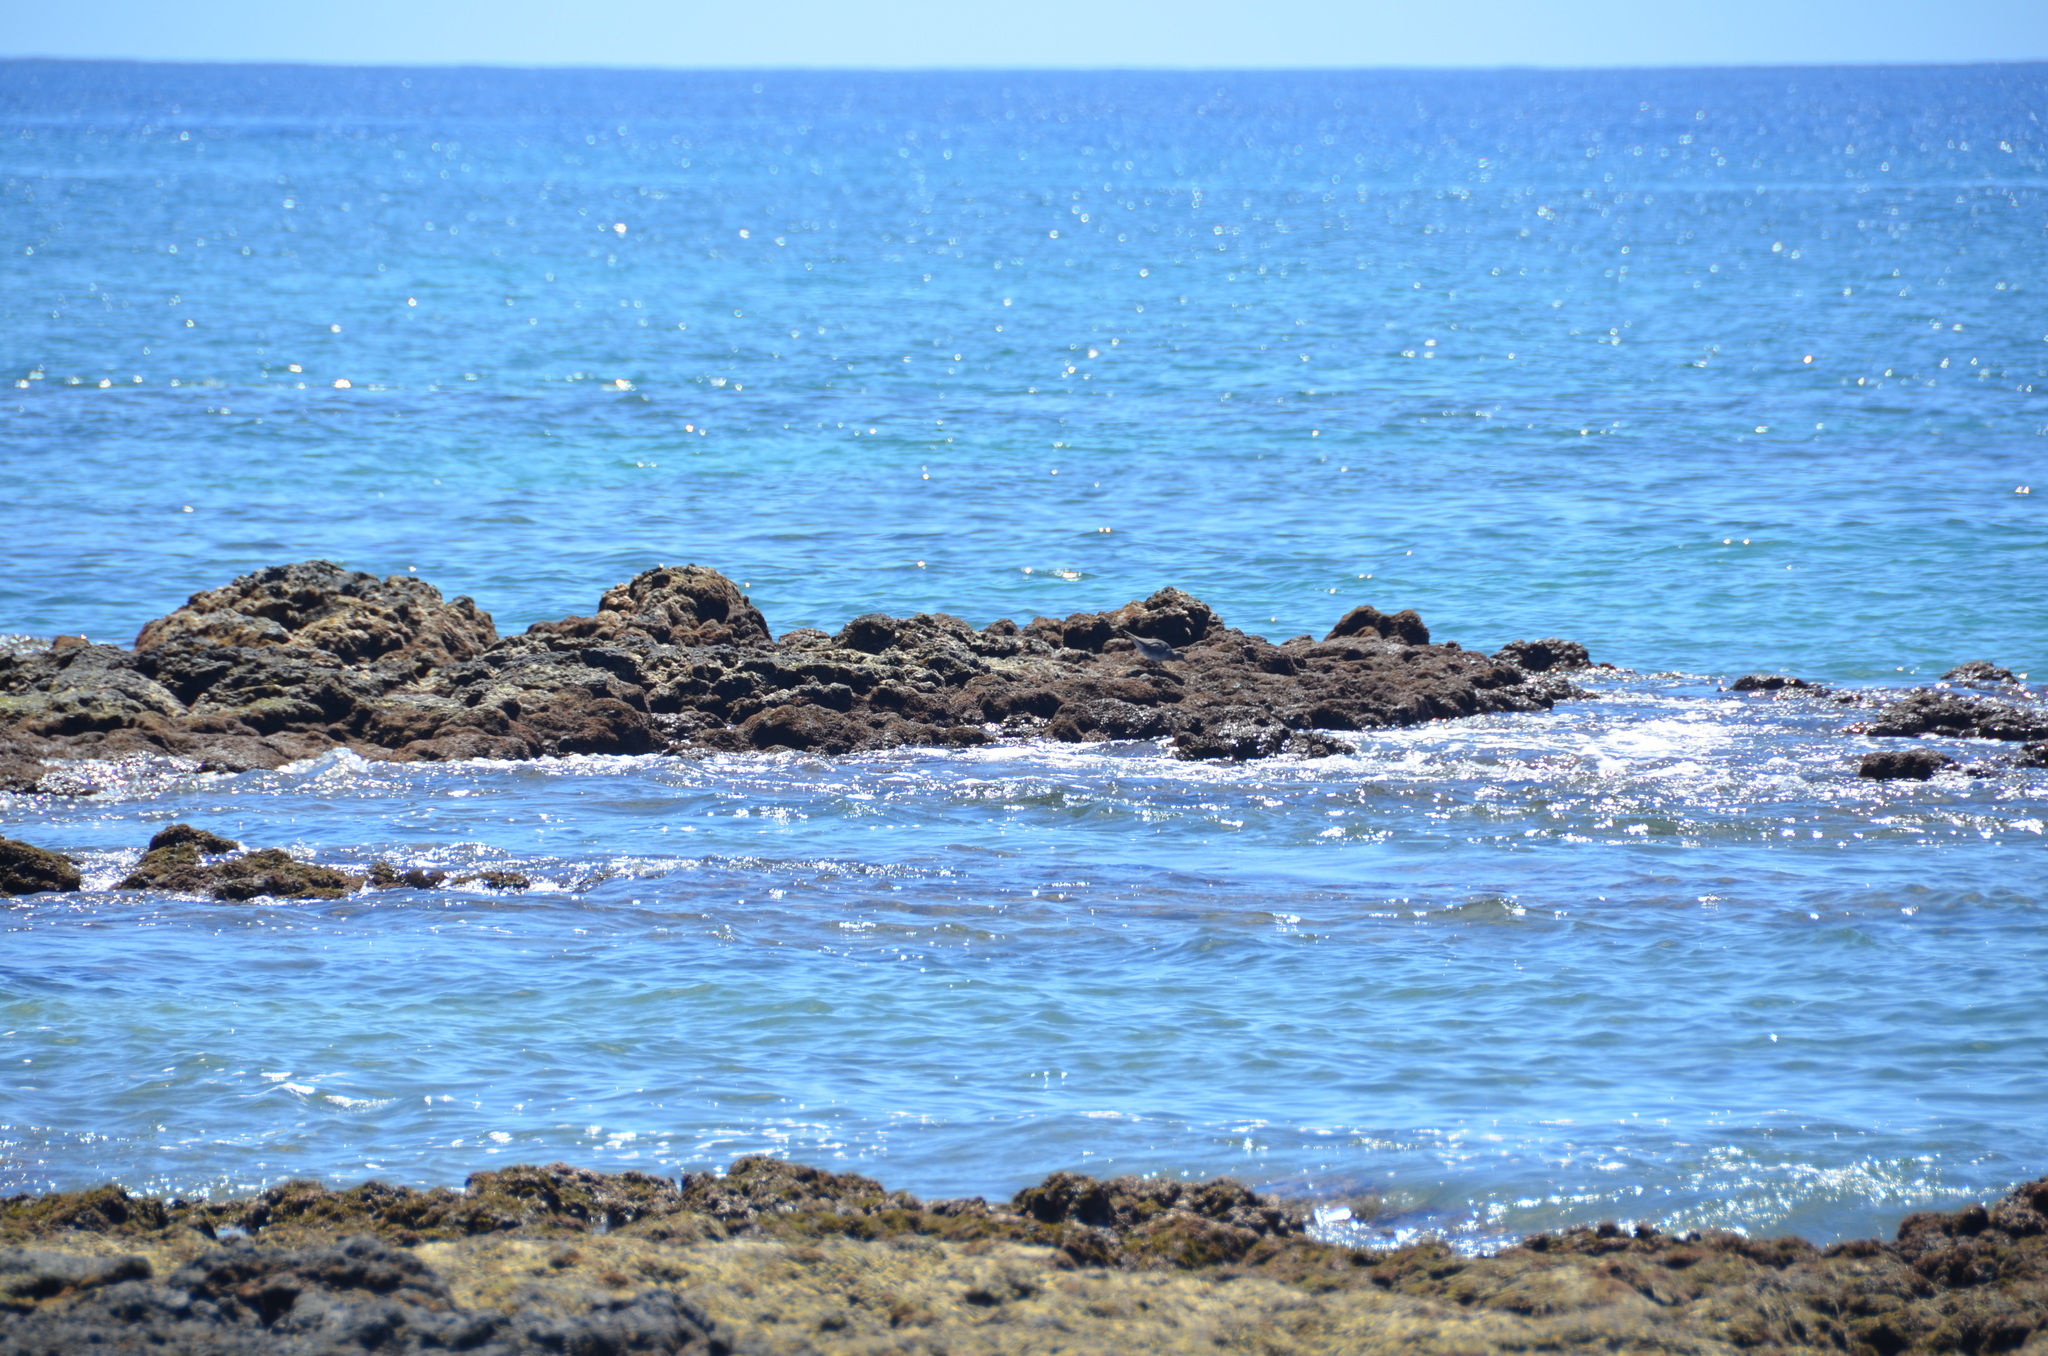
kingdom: Animalia
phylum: Chordata
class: Aves
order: Charadriiformes
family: Scolopacidae
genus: Tringa
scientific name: Tringa incana
